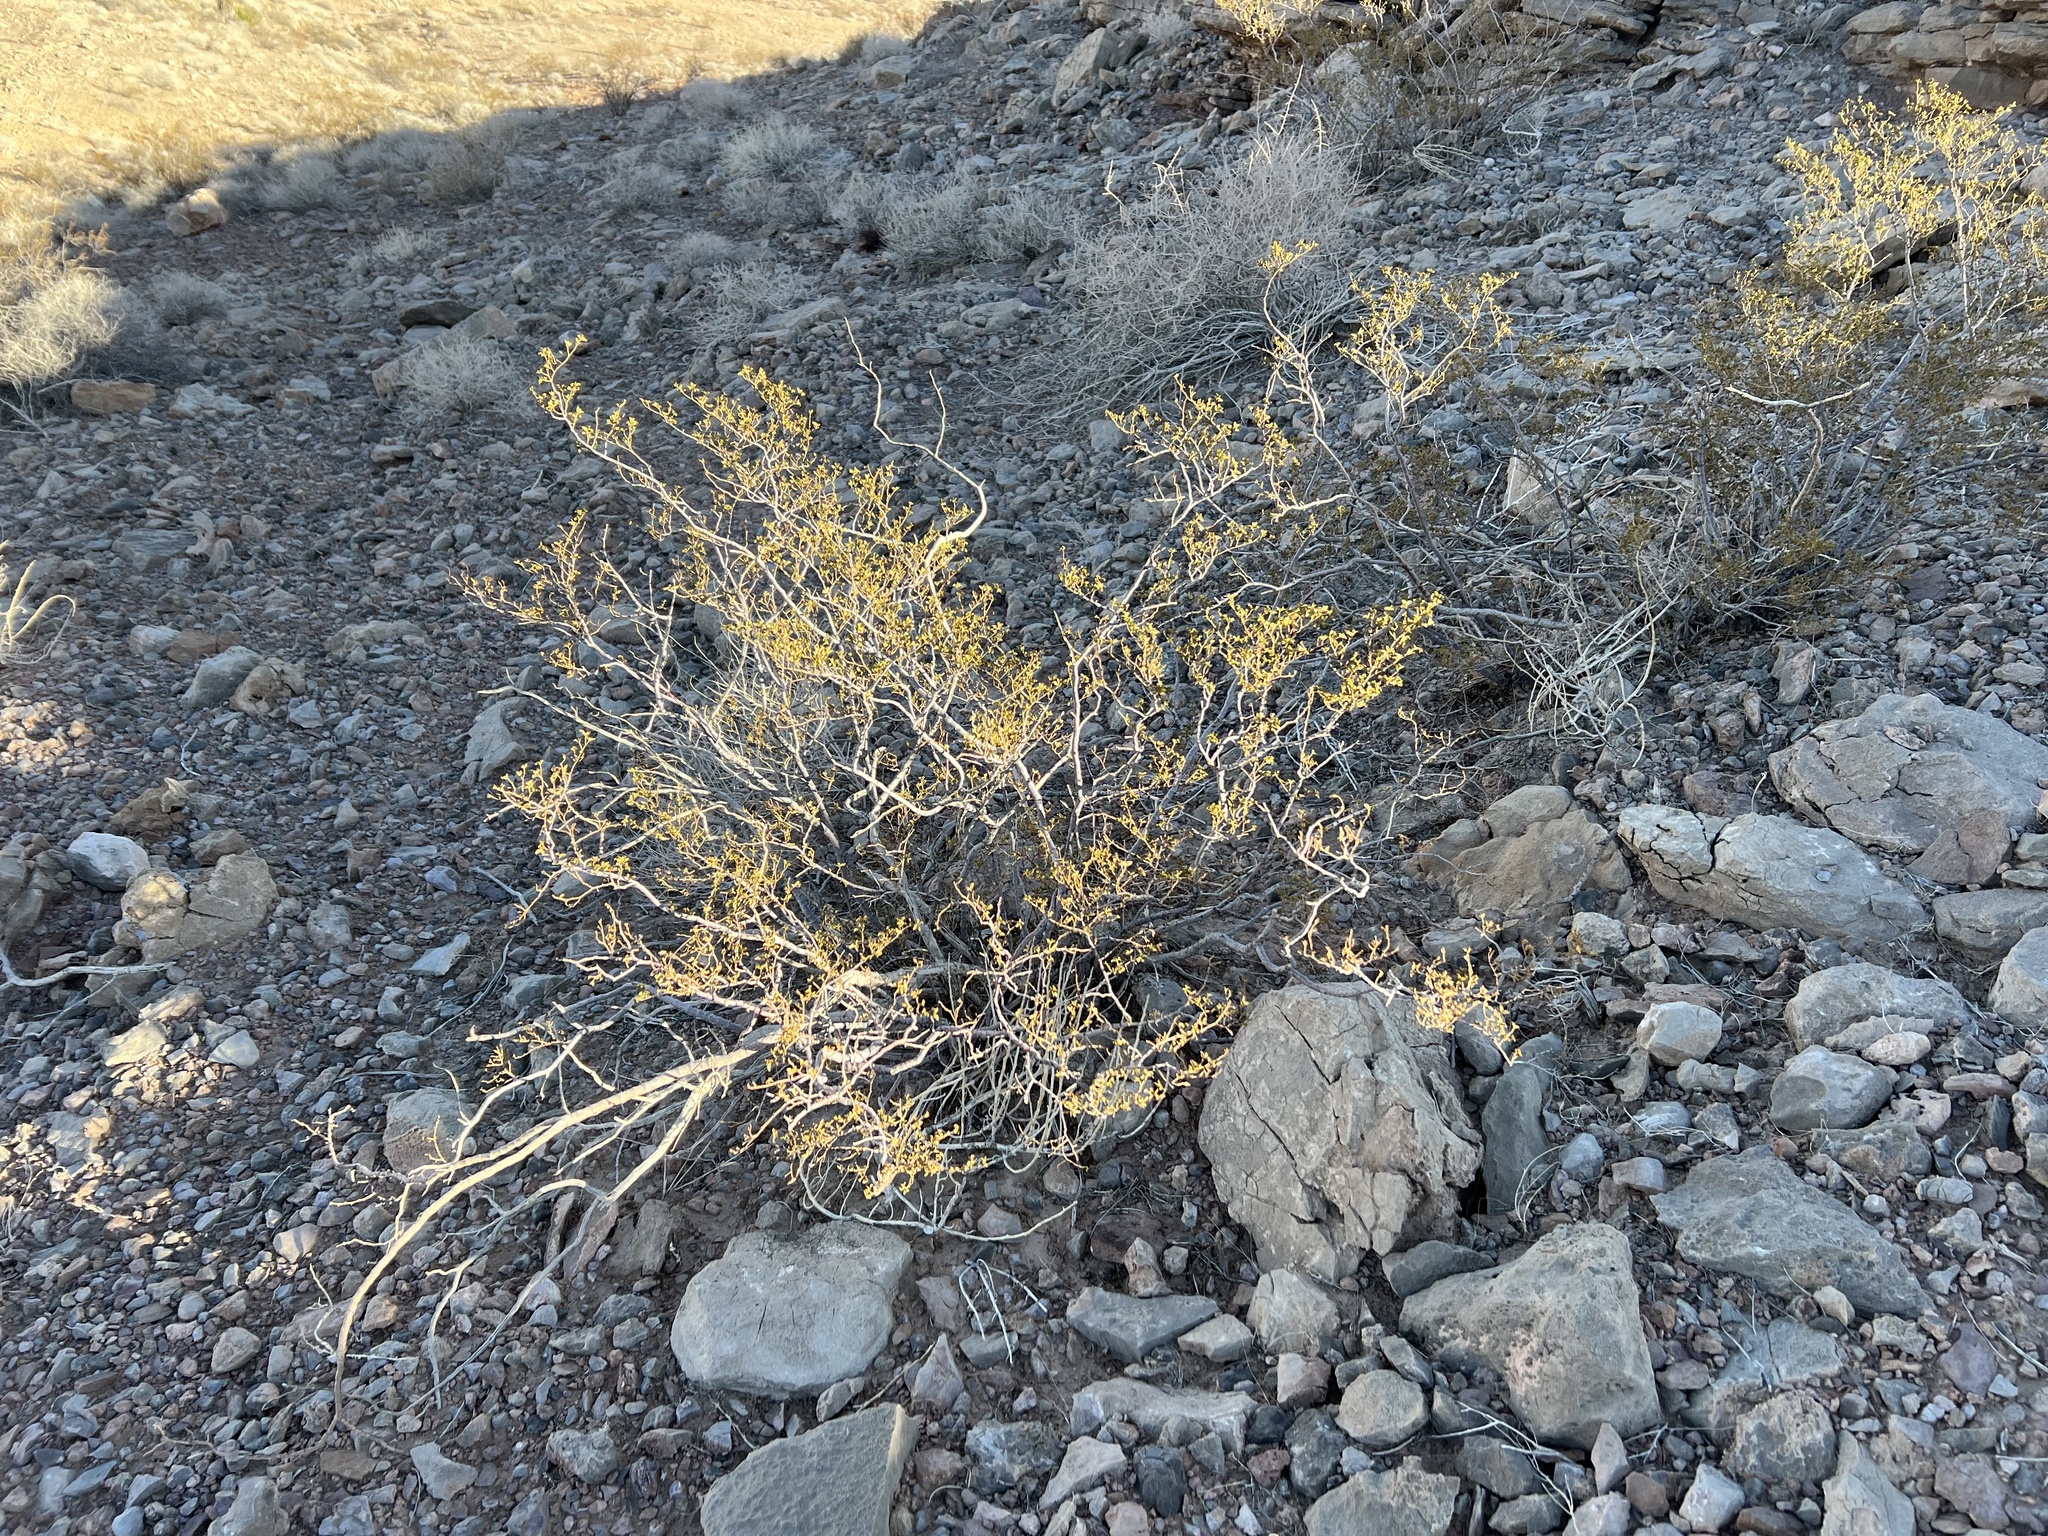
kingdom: Plantae
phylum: Tracheophyta
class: Magnoliopsida
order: Zygophyllales
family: Zygophyllaceae
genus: Larrea
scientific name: Larrea tridentata
